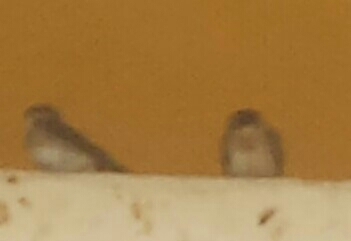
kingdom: Animalia
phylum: Chordata
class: Aves
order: Passeriformes
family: Hirundinidae
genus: Petrochelidon
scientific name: Petrochelidon fulva
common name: Cave swallow
